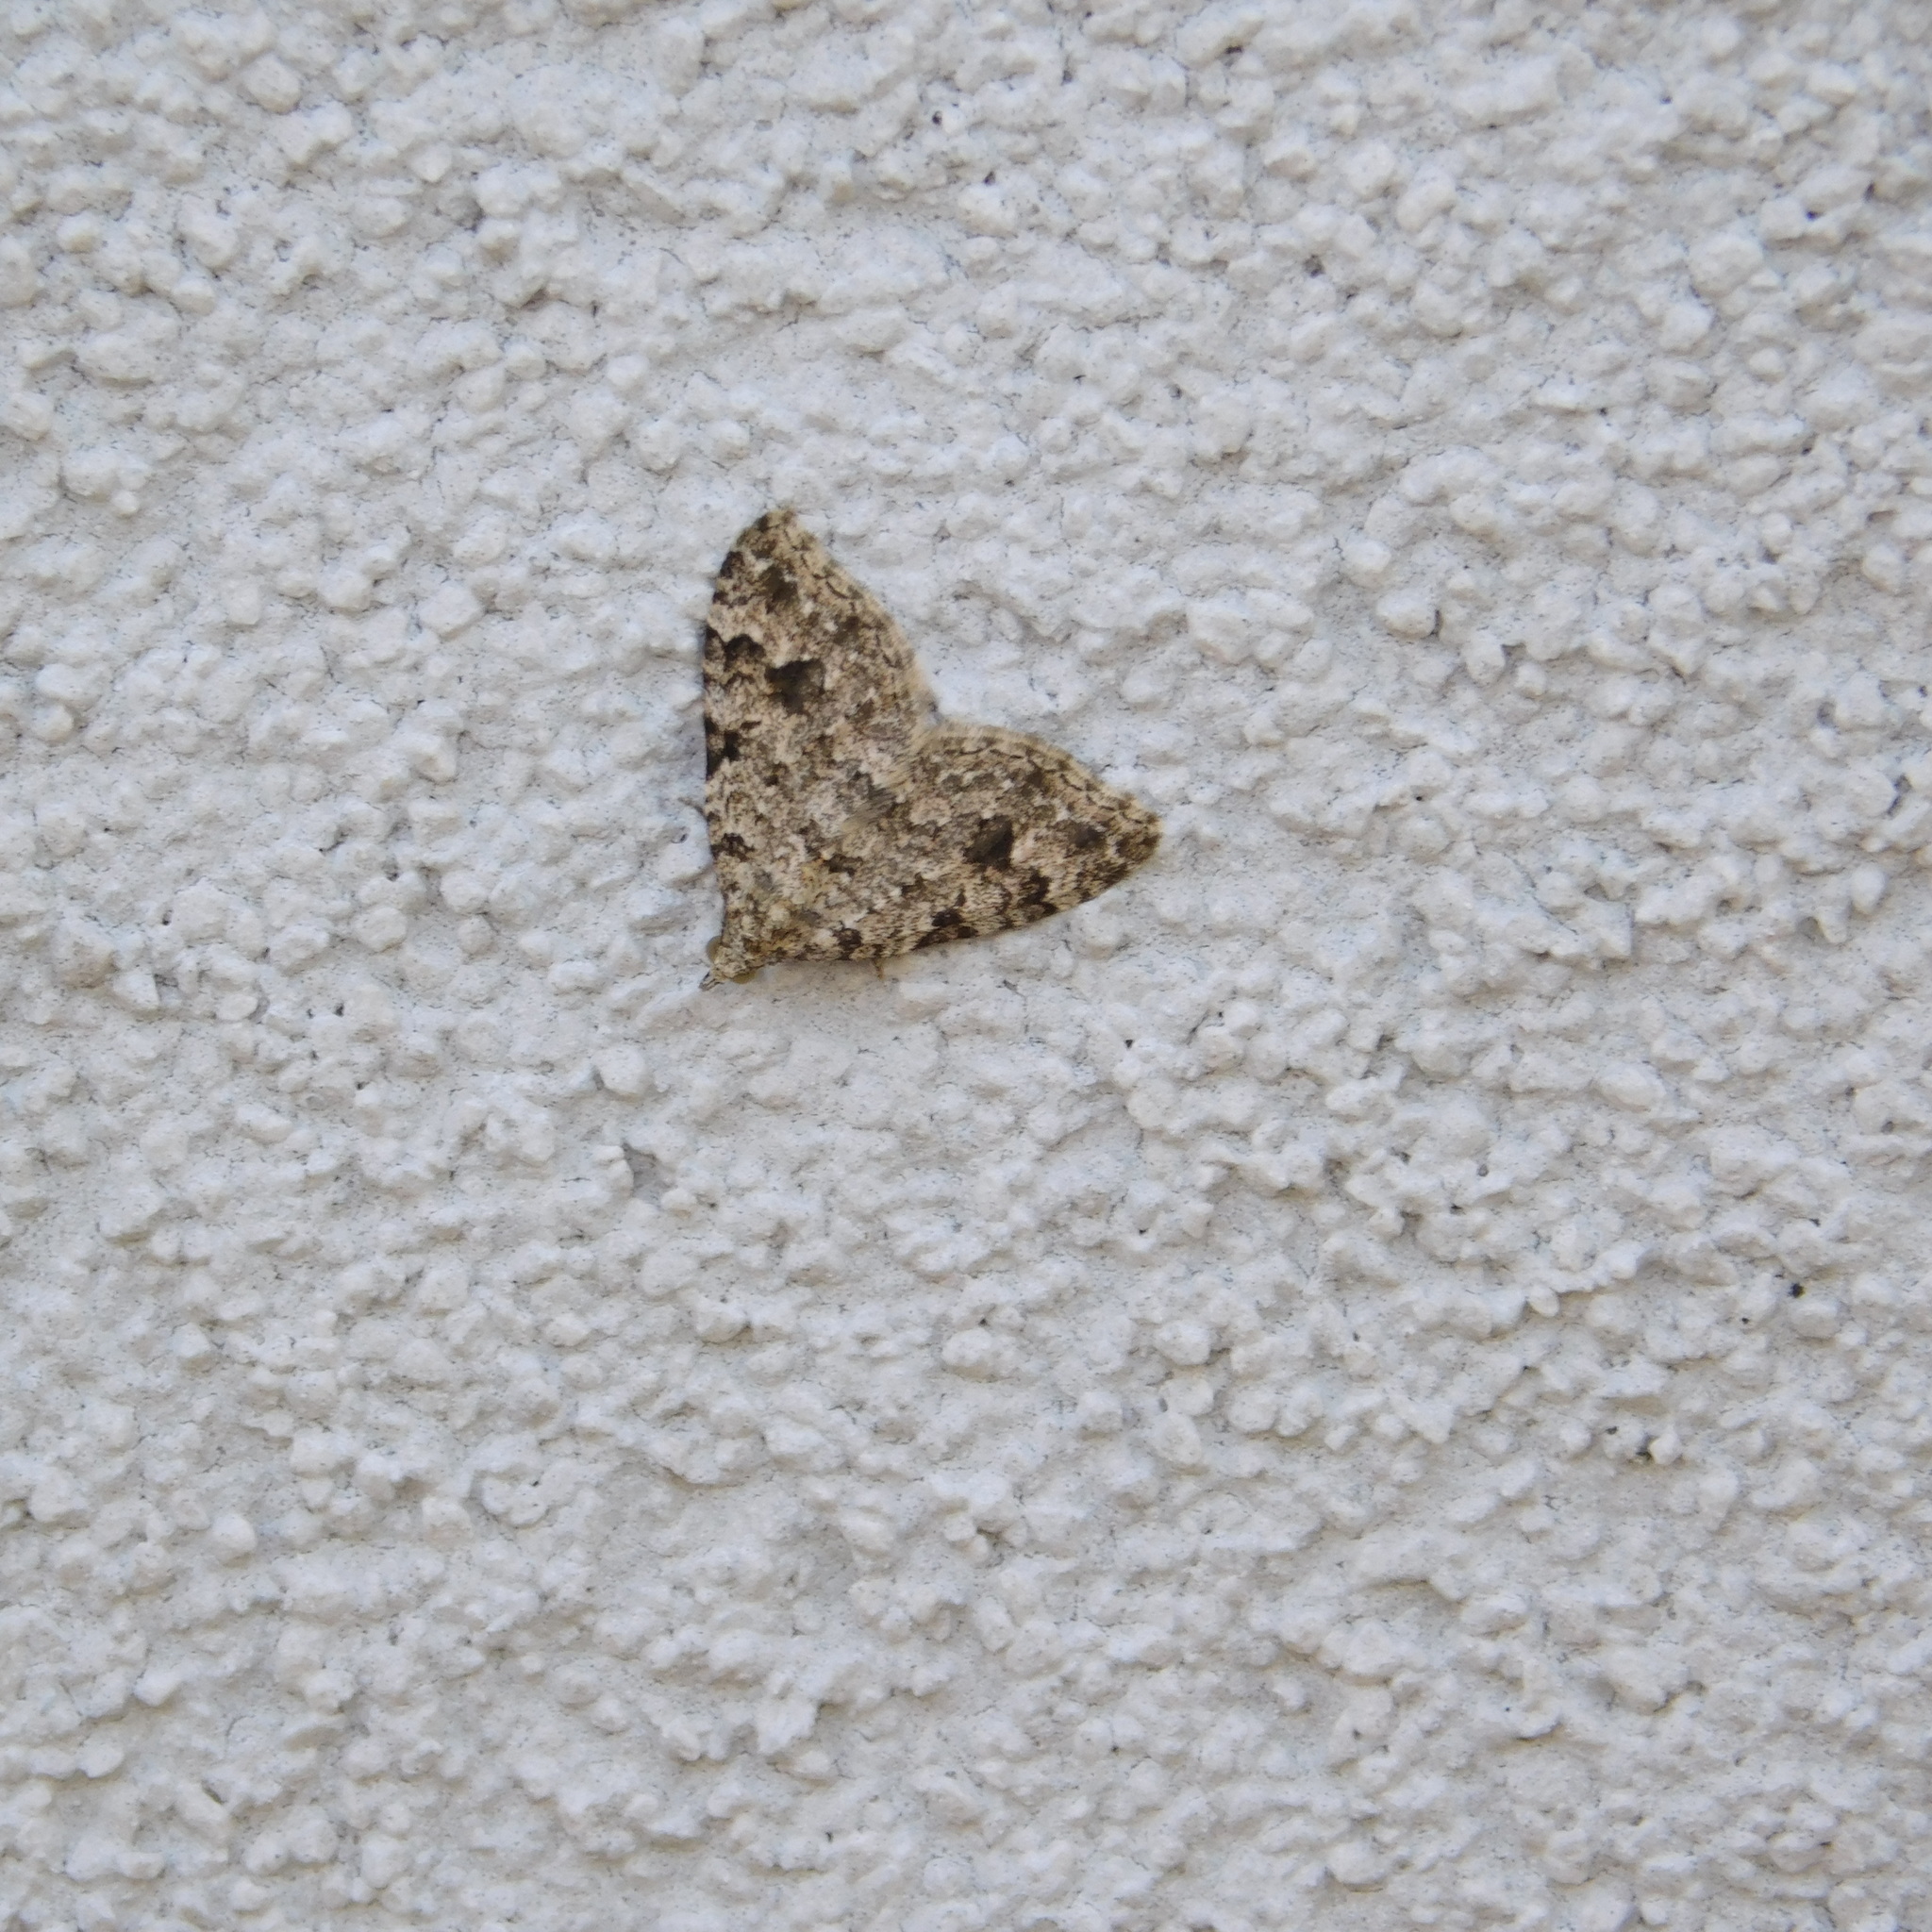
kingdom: Animalia
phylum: Arthropoda
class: Insecta
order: Lepidoptera
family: Geometridae
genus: Helastia
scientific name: Helastia cinerearia
